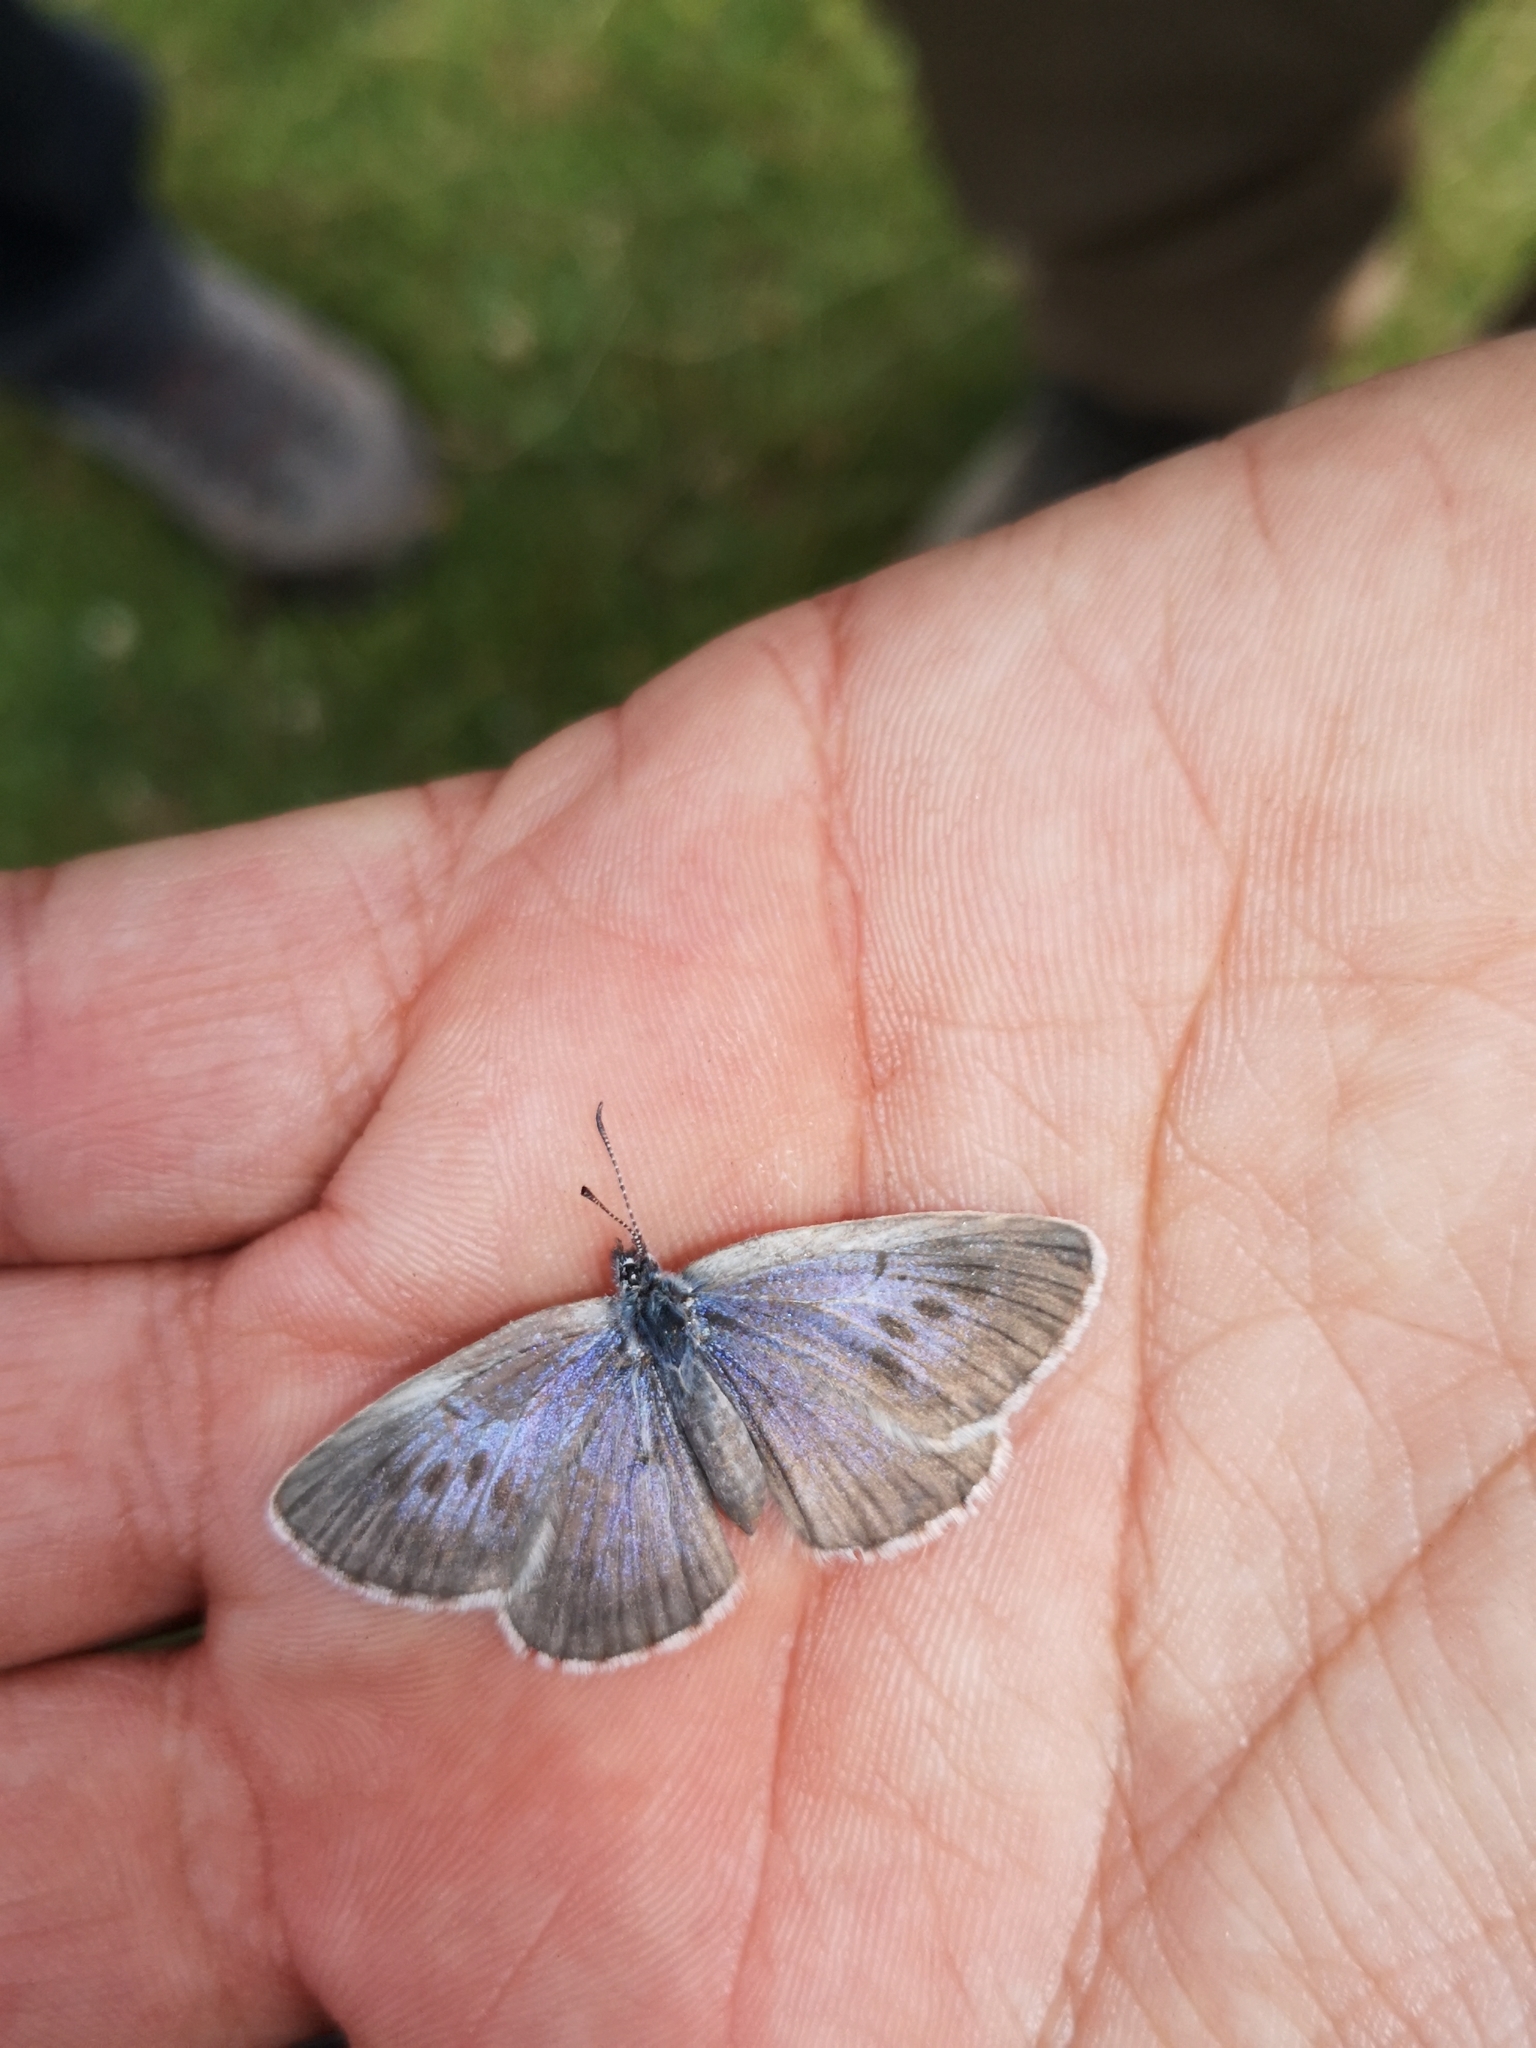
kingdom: Animalia
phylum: Arthropoda
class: Insecta
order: Lepidoptera
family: Lycaenidae
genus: Maculinea
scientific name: Maculinea alcon
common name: Alcon blue
